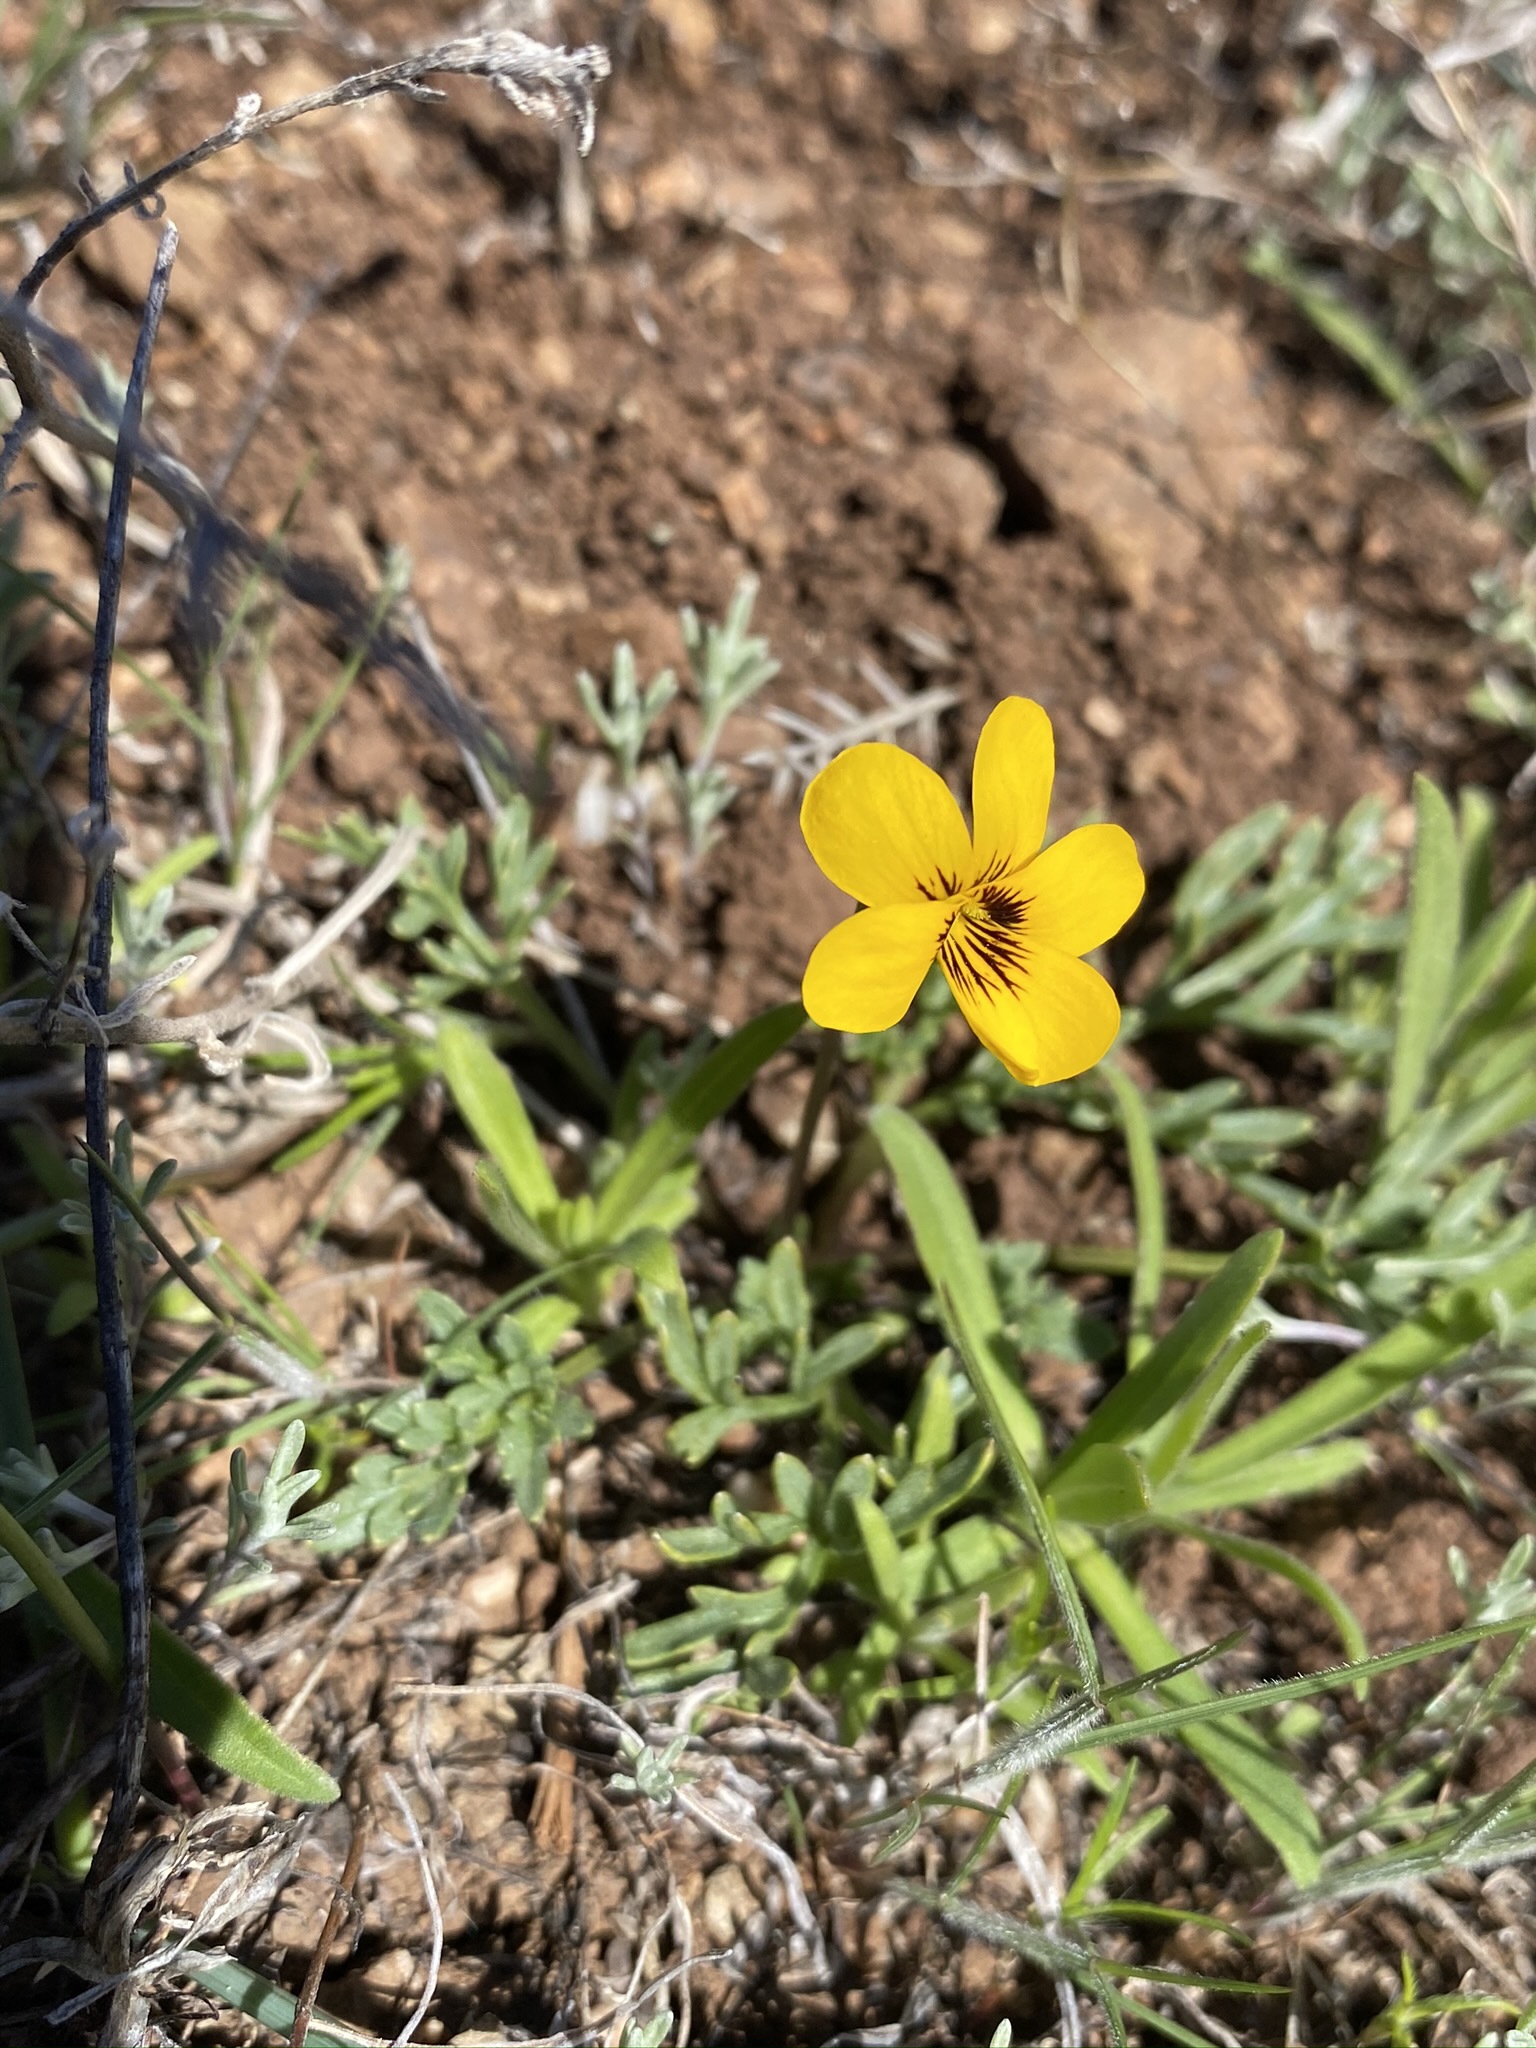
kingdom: Plantae
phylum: Tracheophyta
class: Magnoliopsida
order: Malpighiales
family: Violaceae
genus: Viola
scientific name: Viola douglasii
